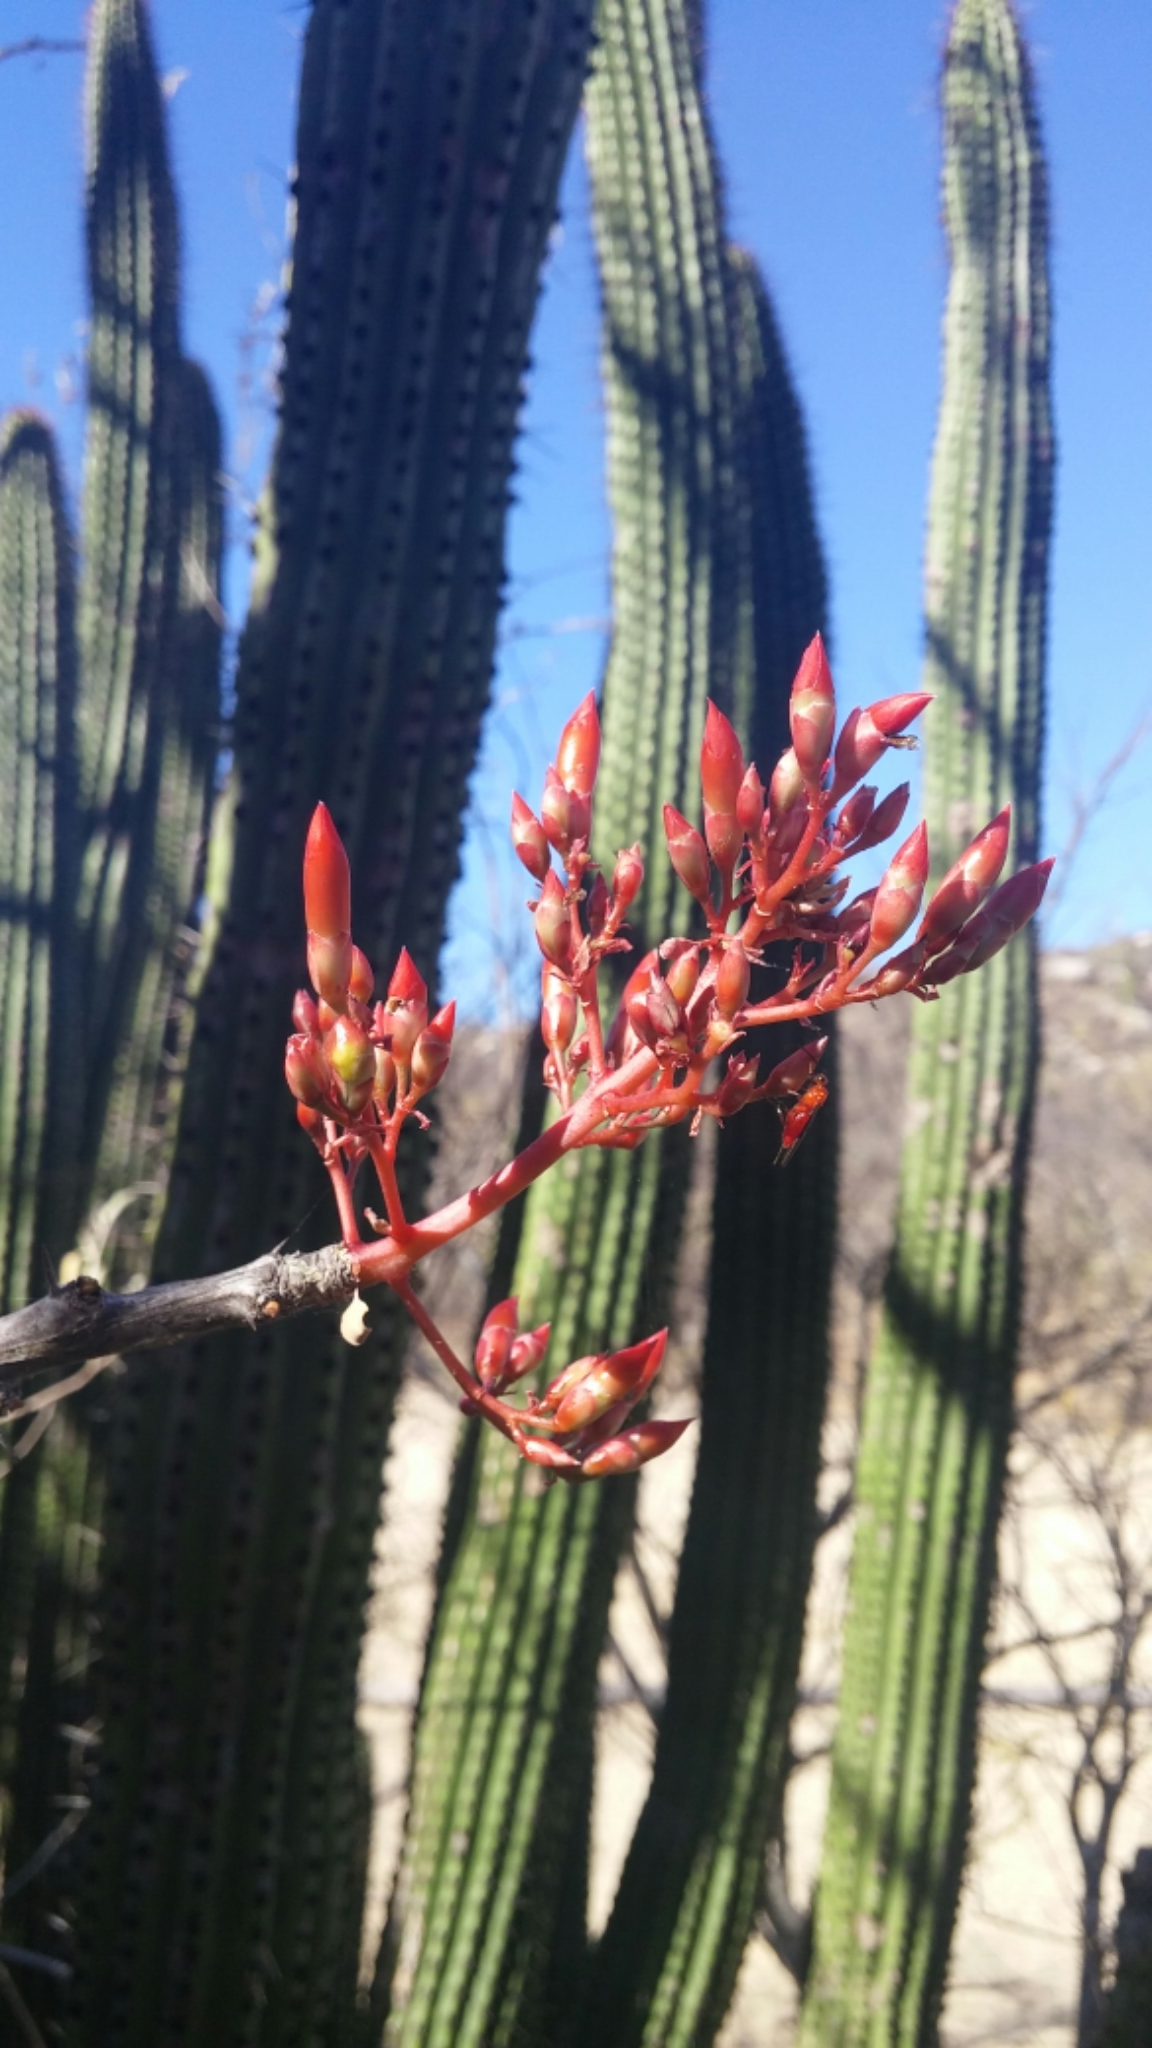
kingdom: Plantae
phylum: Tracheophyta
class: Magnoliopsida
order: Ericales
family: Fouquieriaceae
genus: Fouquieria
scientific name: Fouquieria diguetii
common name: Adam's tree
